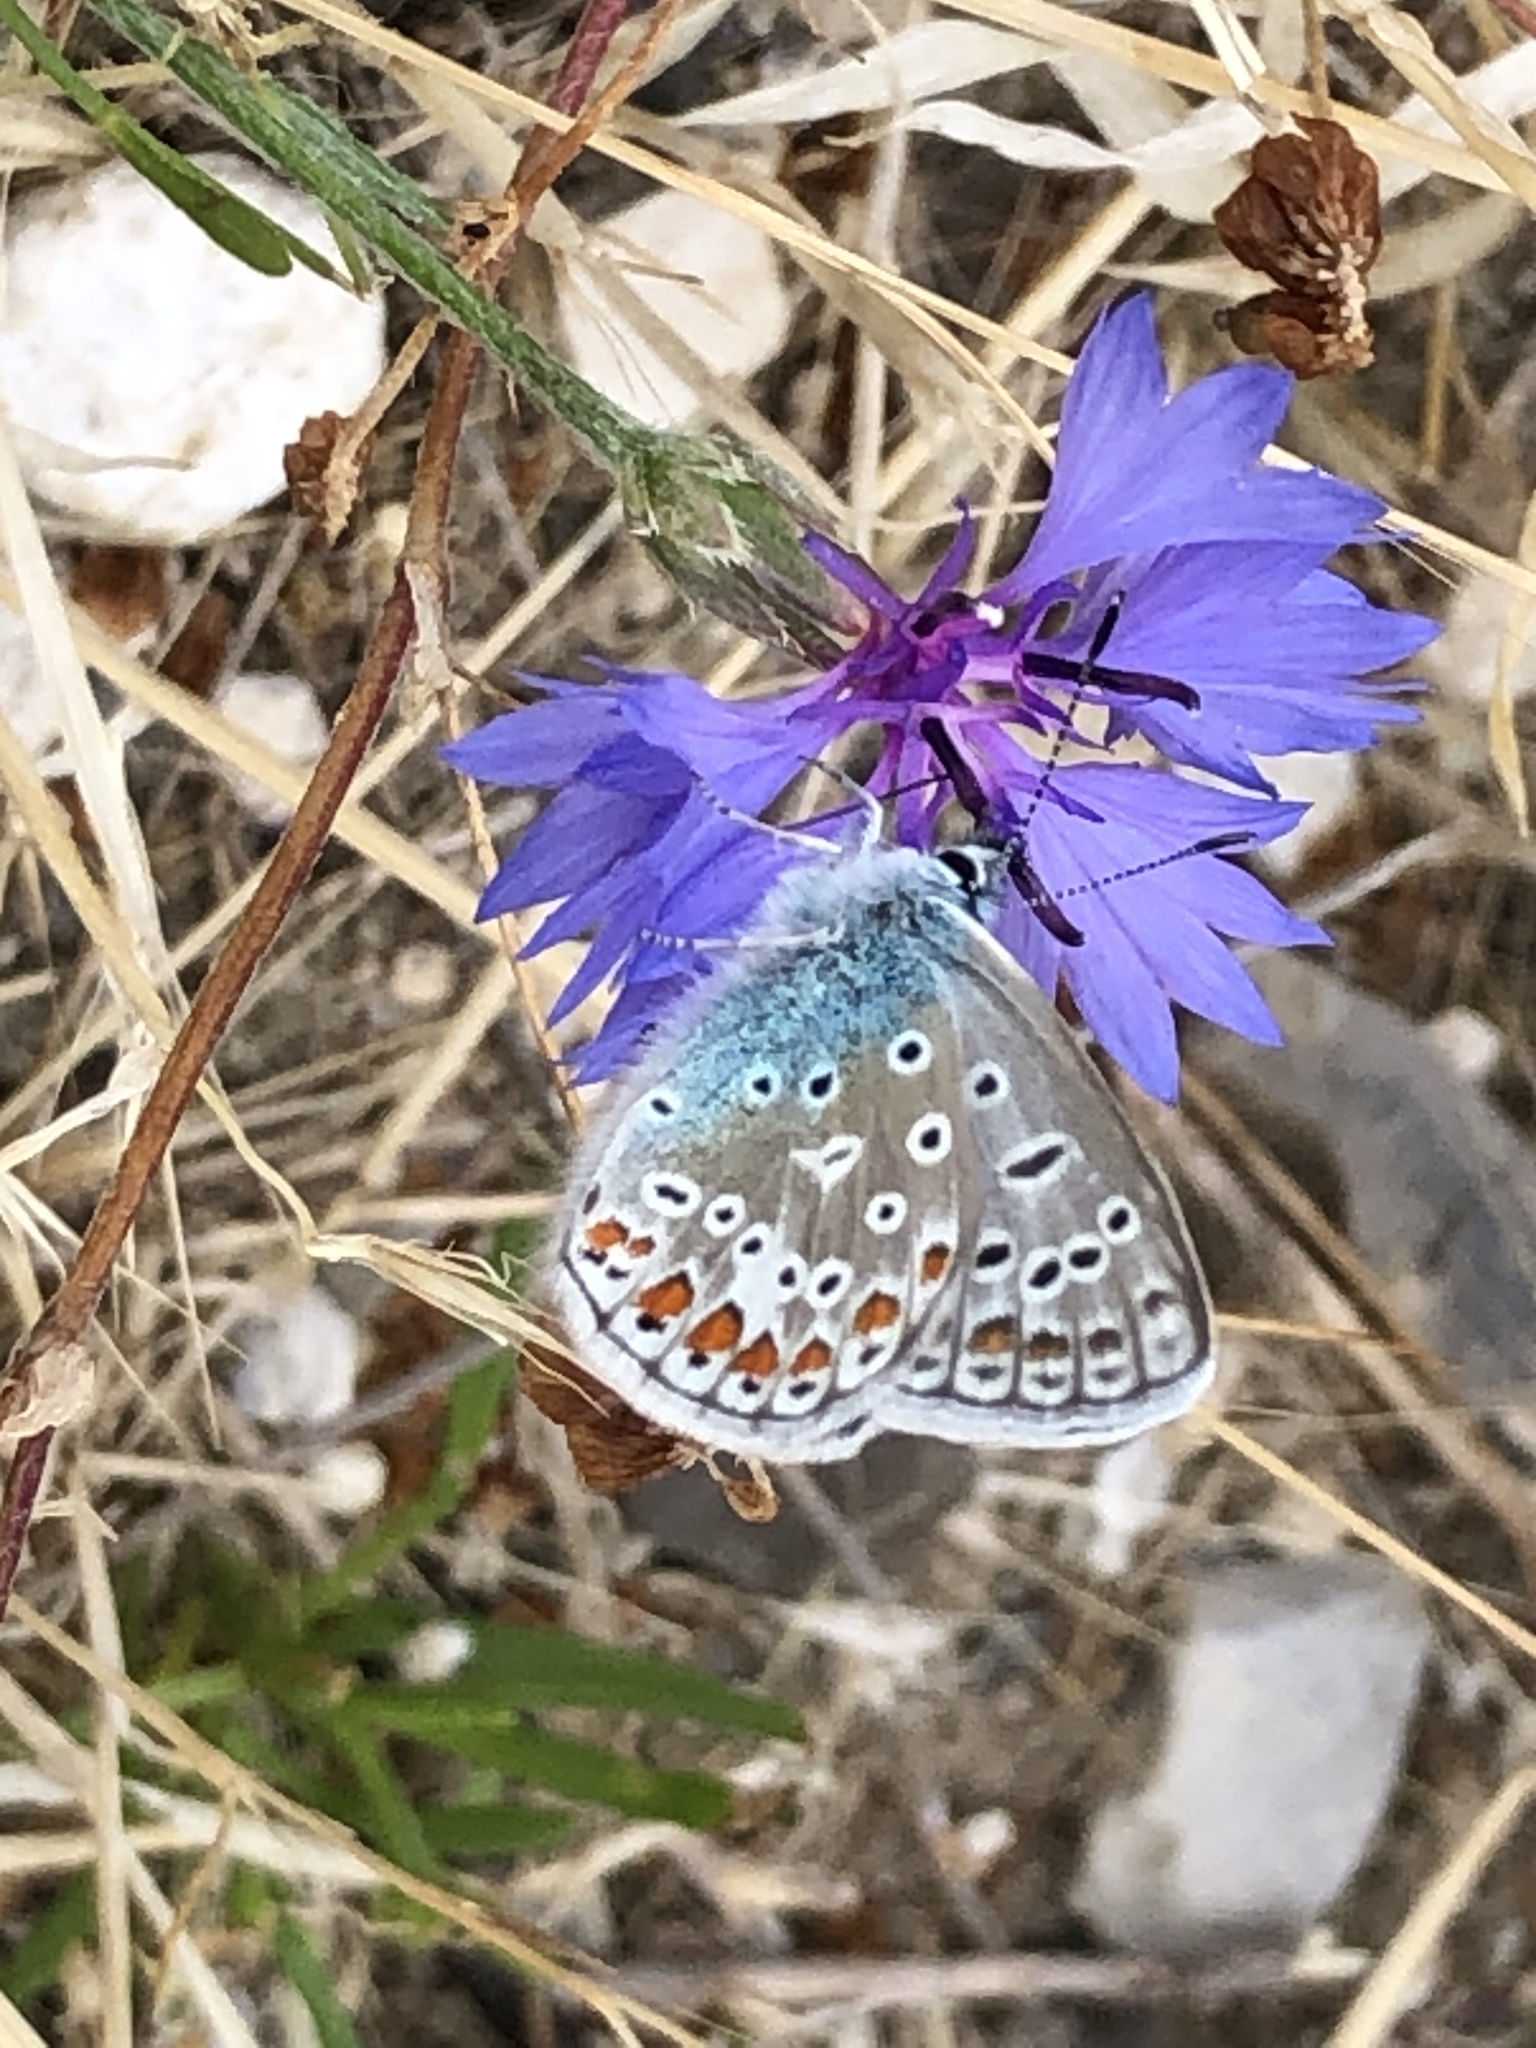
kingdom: Animalia
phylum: Arthropoda
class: Insecta
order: Lepidoptera
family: Lycaenidae
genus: Polyommatus
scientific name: Polyommatus icarus
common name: Common blue
